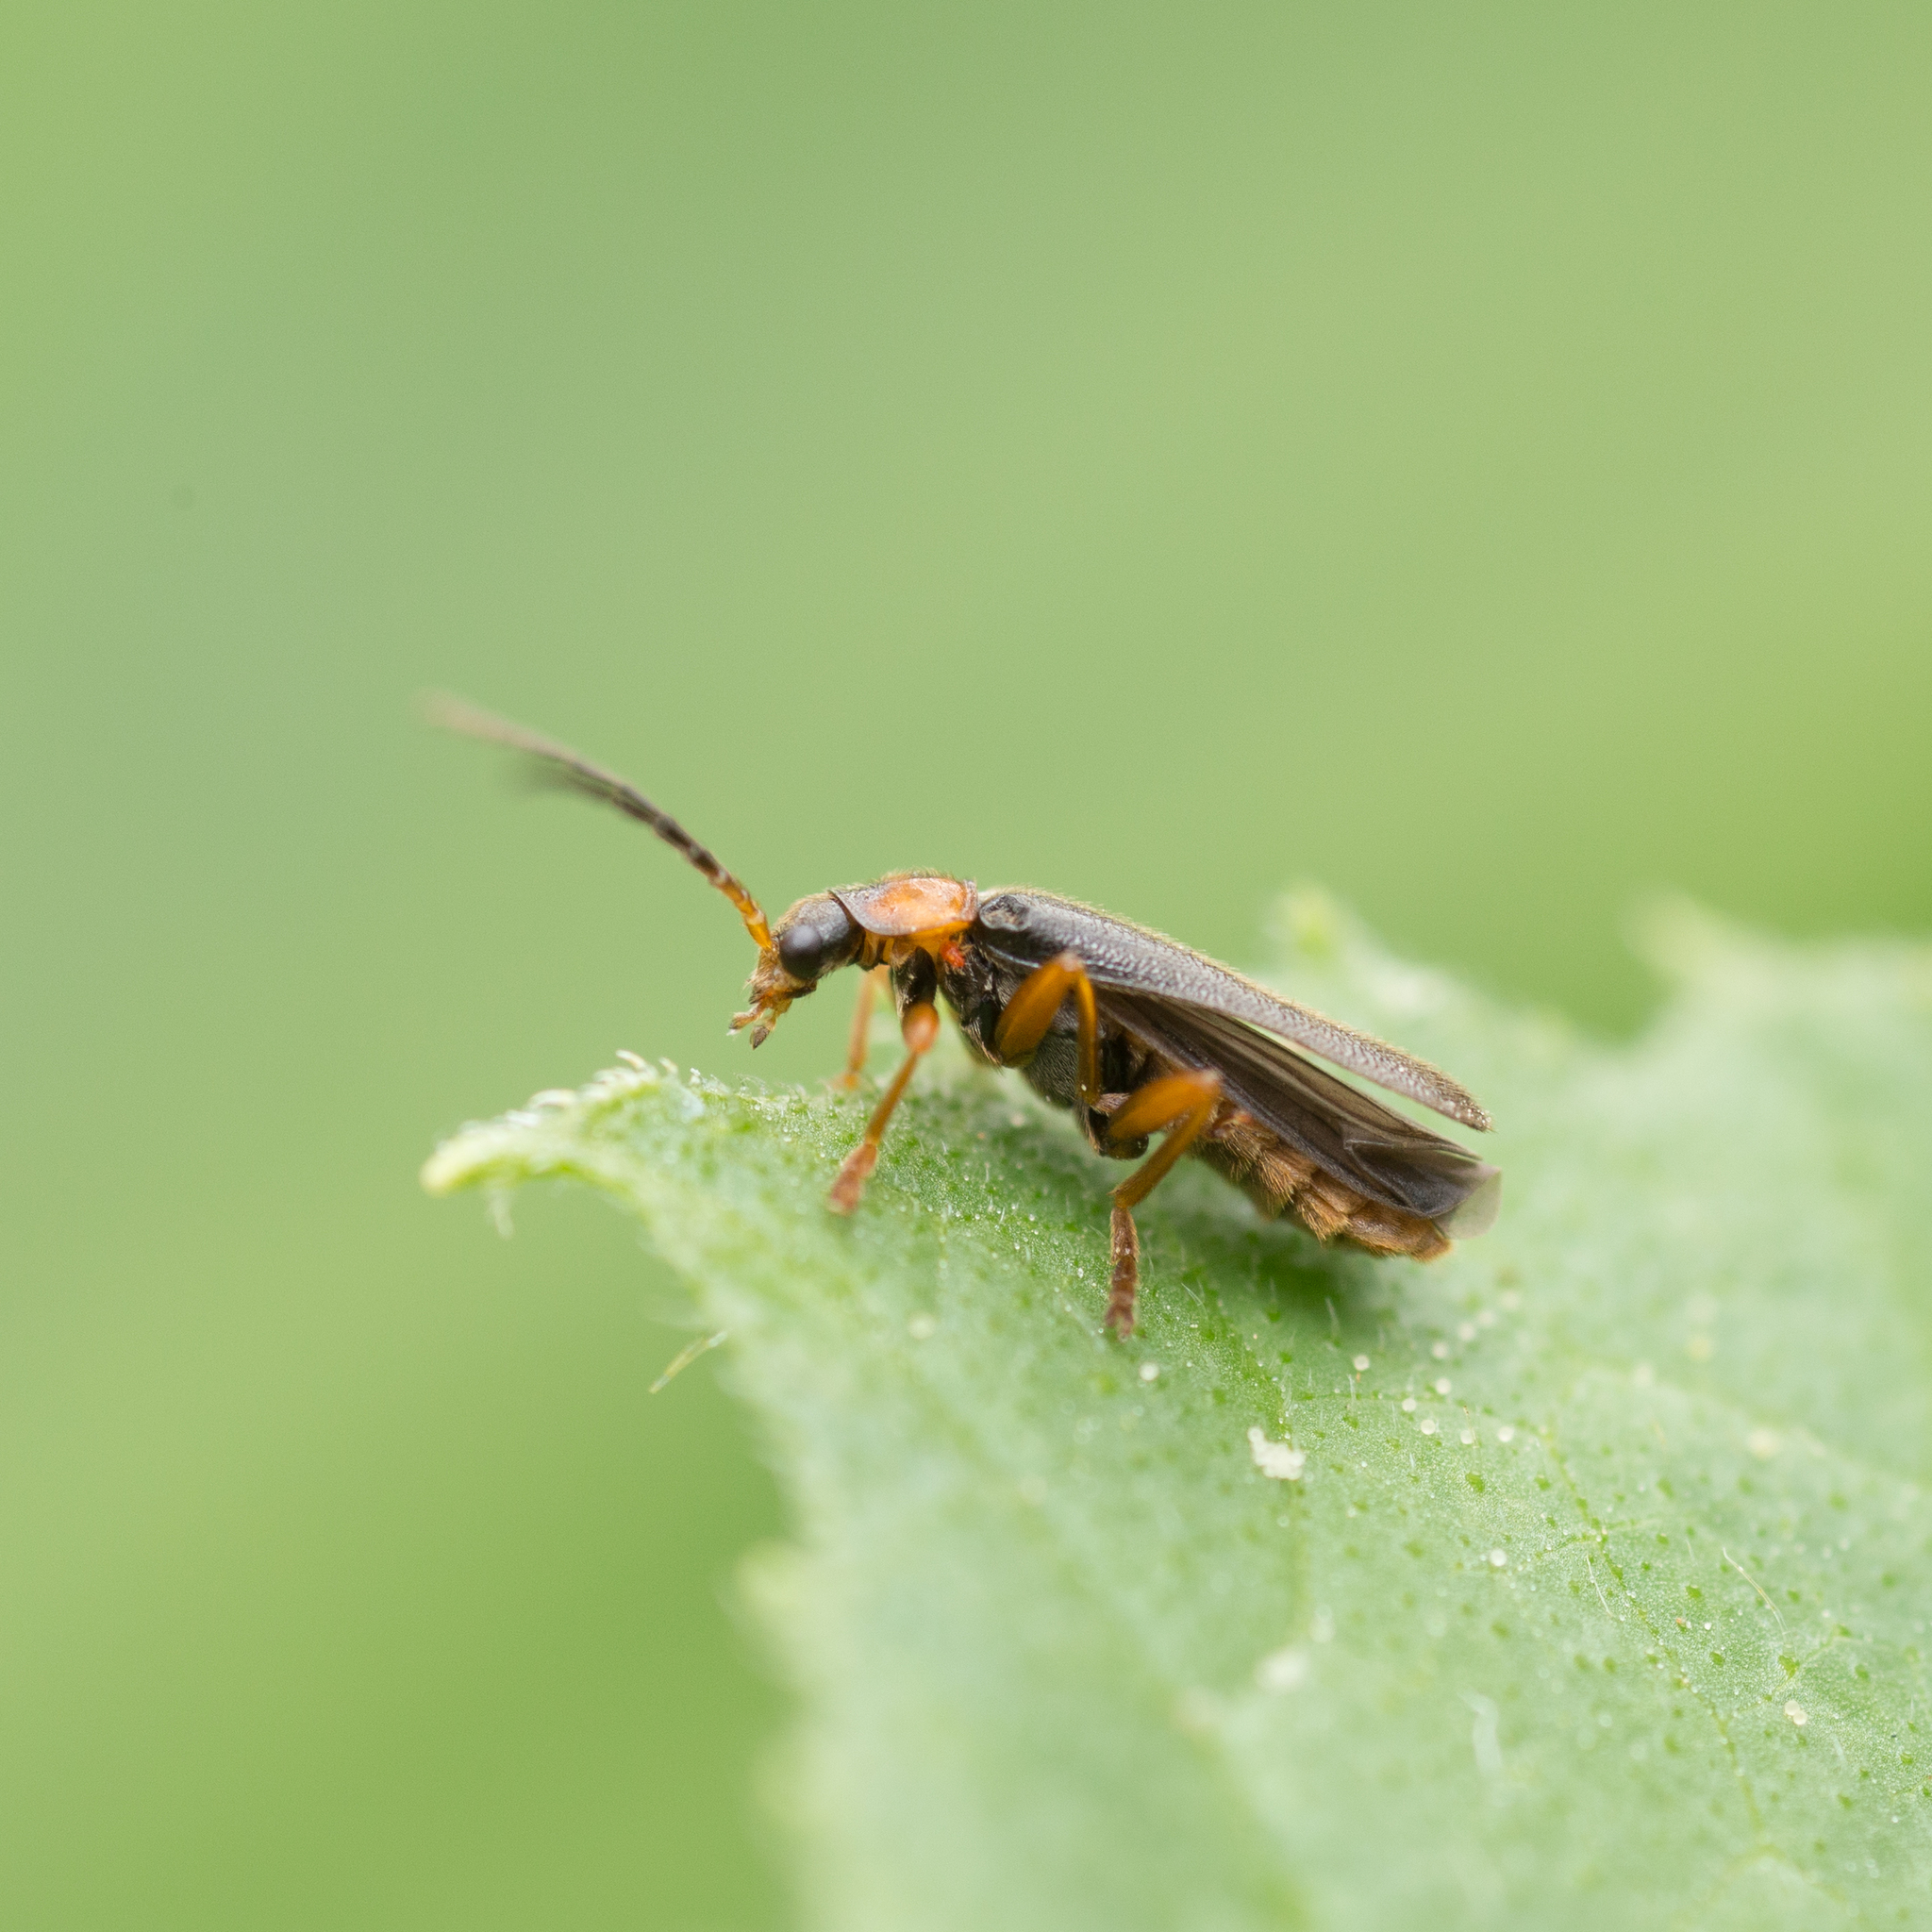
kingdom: Animalia
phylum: Arthropoda
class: Insecta
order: Coleoptera
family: Cantharidae
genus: Cantharis
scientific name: Cantharis flavilabris
